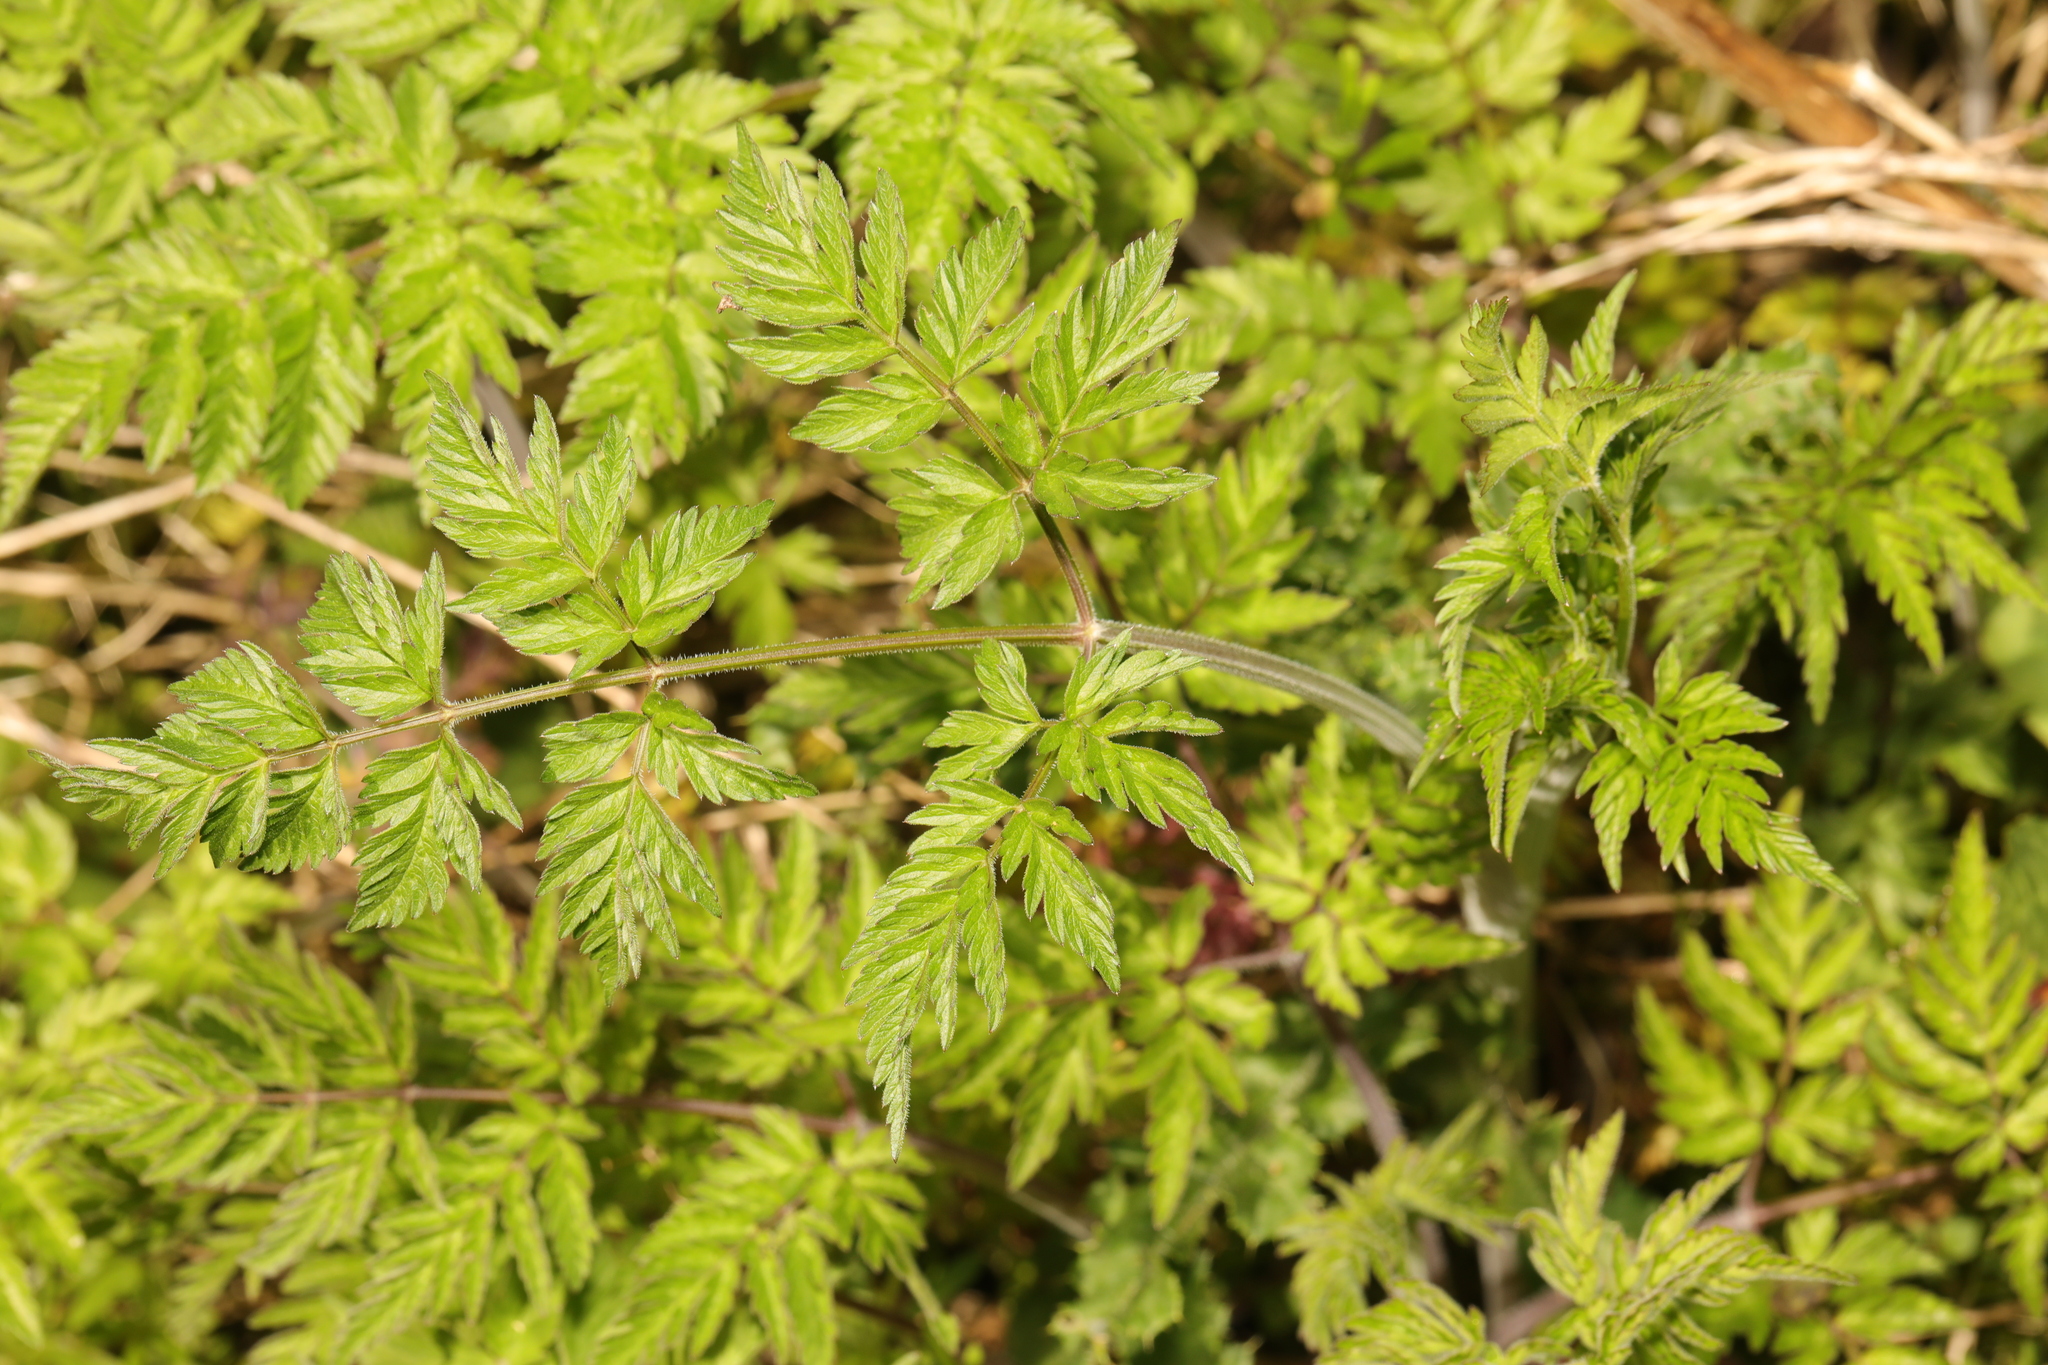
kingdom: Plantae
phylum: Tracheophyta
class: Magnoliopsida
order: Apiales
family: Apiaceae
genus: Anthriscus
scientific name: Anthriscus sylvestris
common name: Cow parsley
